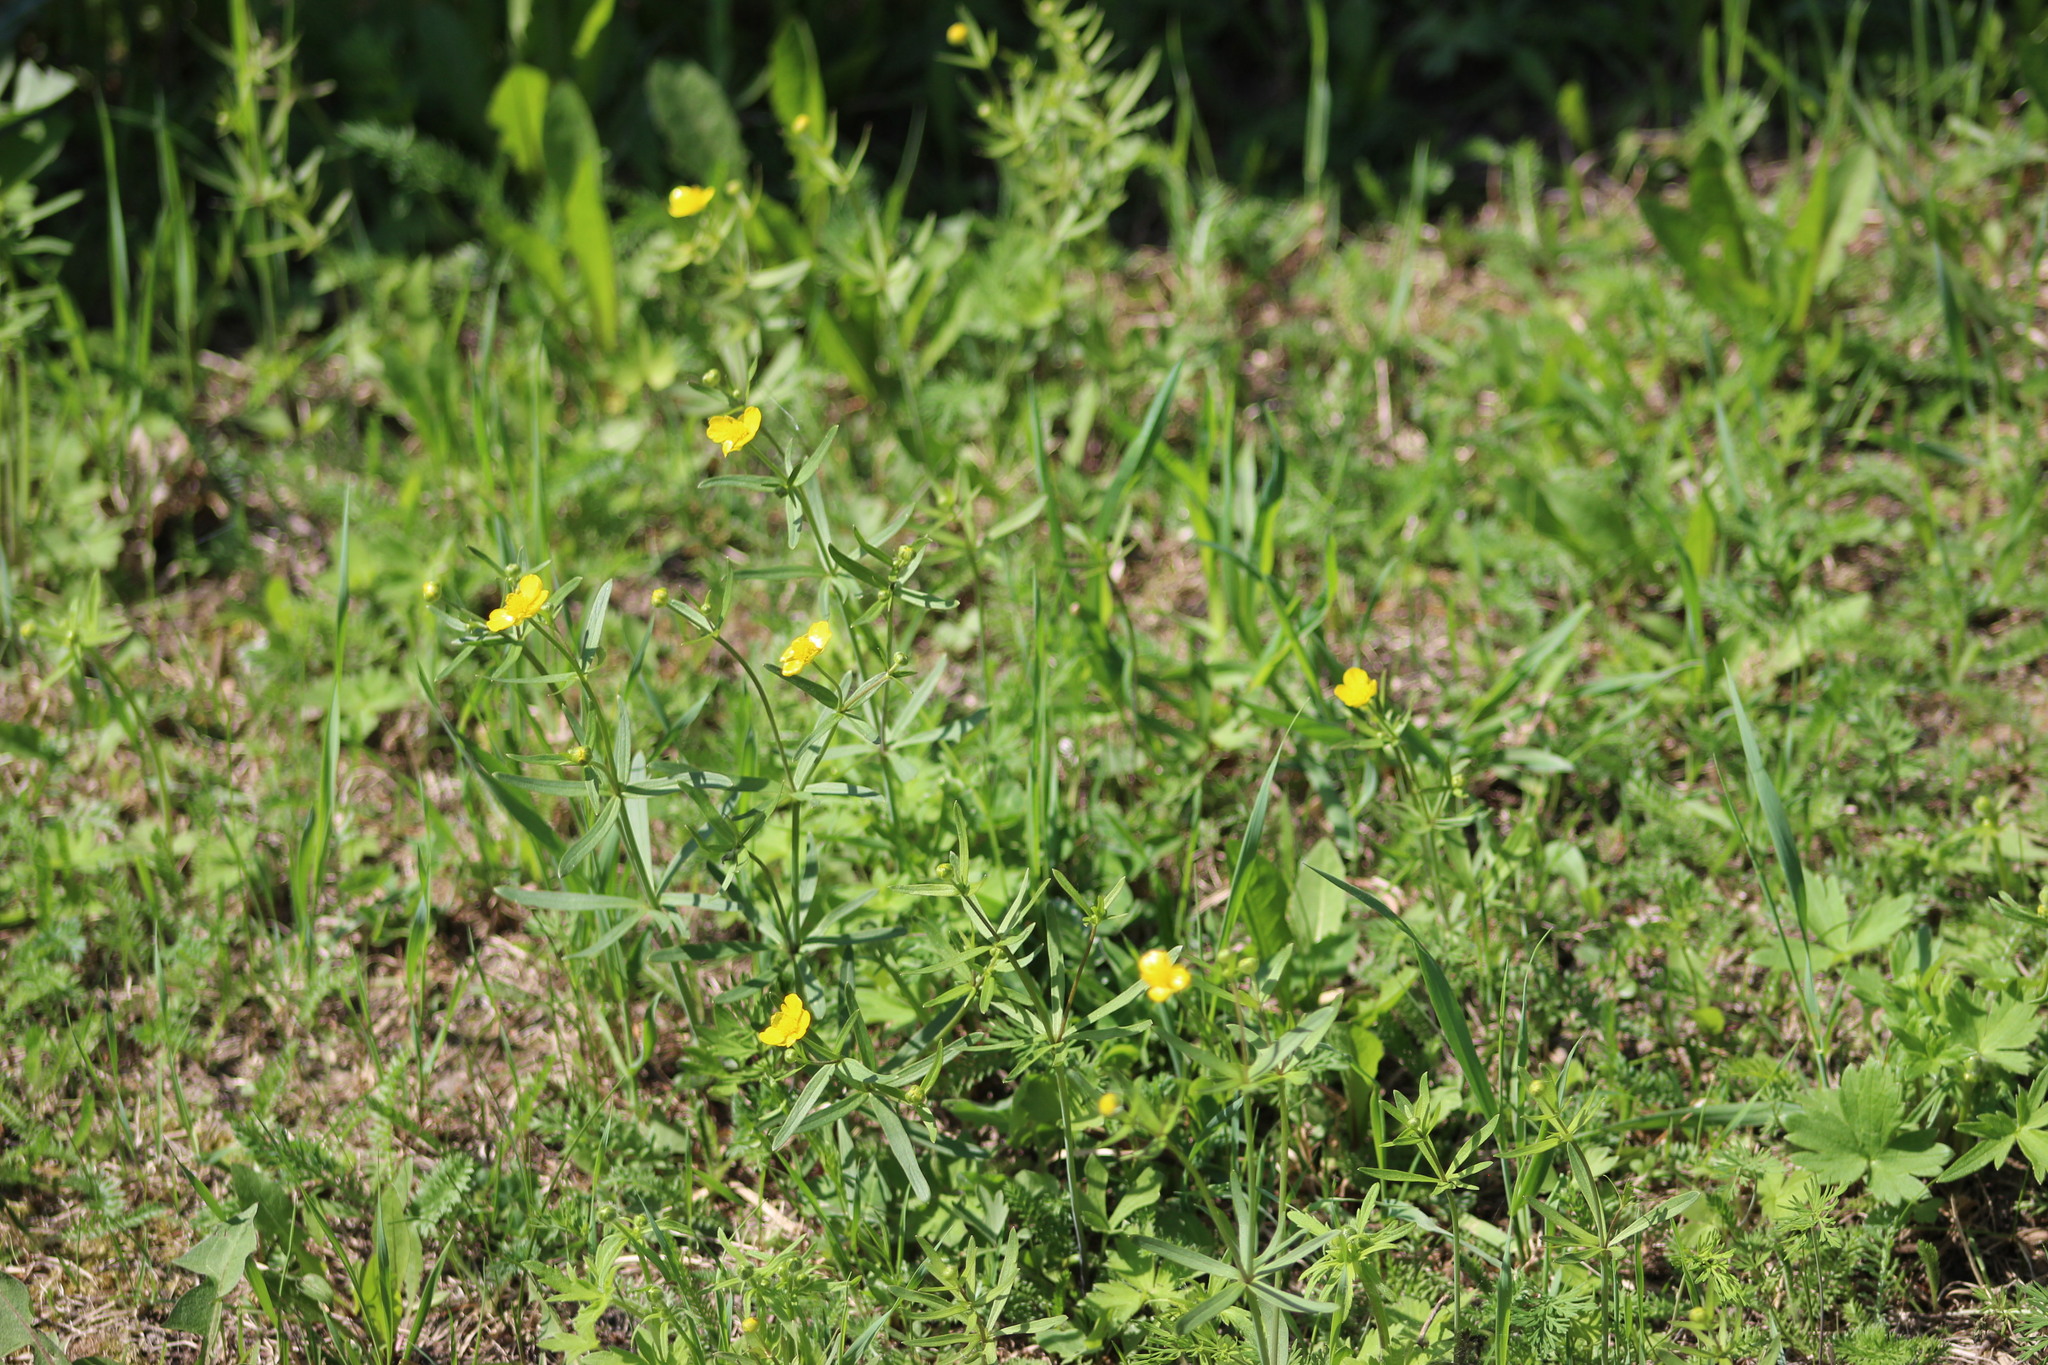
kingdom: Plantae
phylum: Tracheophyta
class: Magnoliopsida
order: Ranunculales
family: Ranunculaceae
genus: Ranunculus
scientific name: Ranunculus auricomus
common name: Goldilocks buttercup
